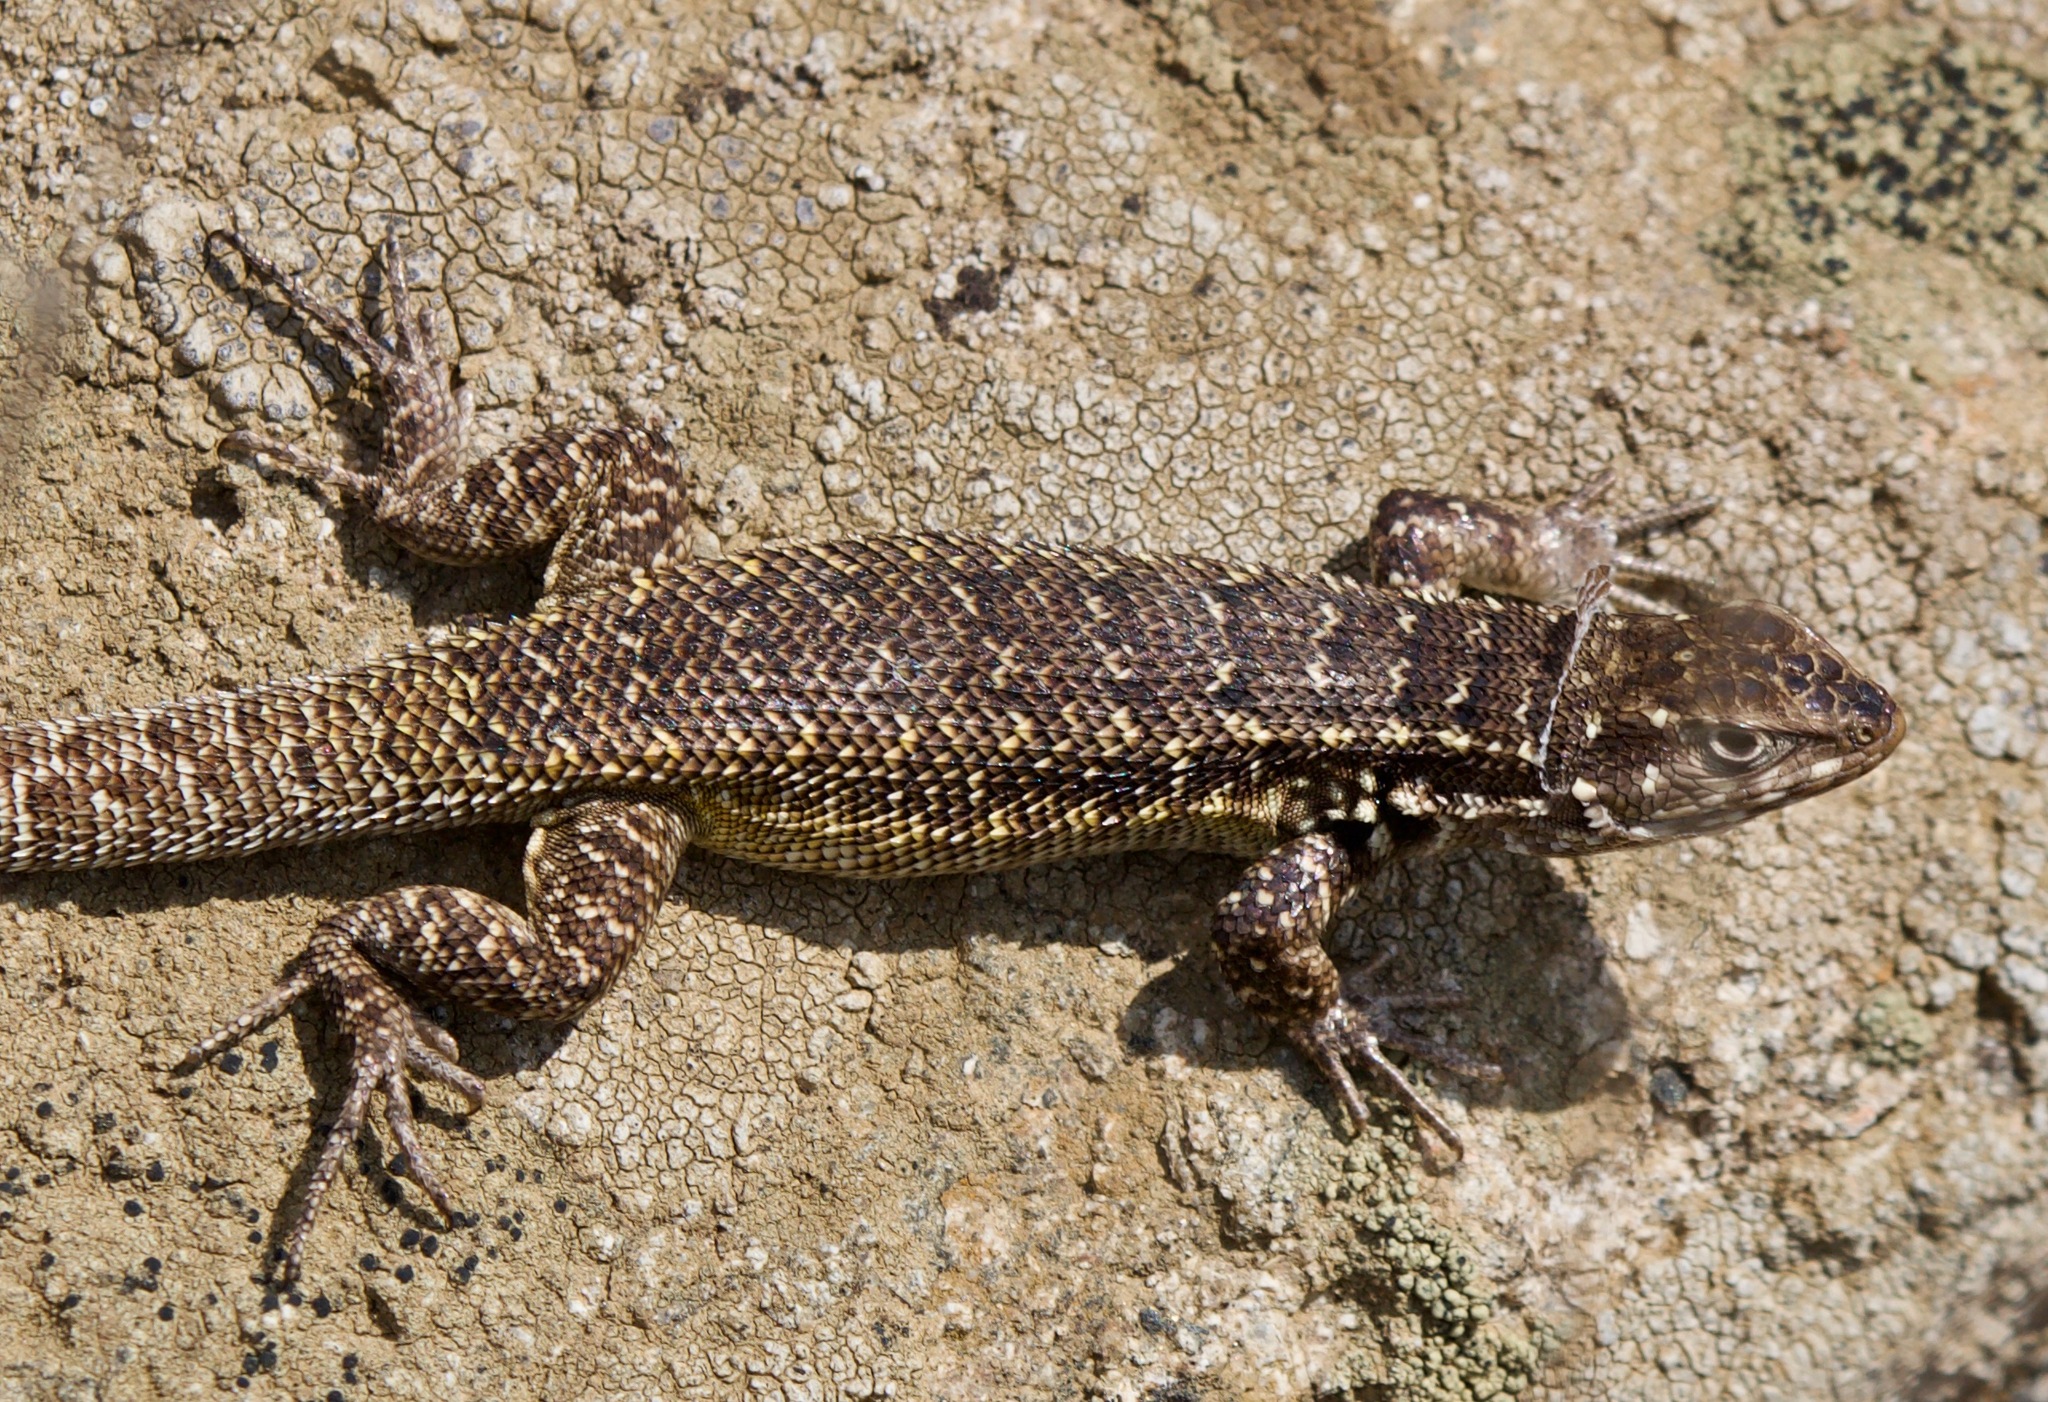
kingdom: Animalia
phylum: Chordata
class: Squamata
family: Liolaemidae
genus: Liolaemus
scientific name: Liolaemus zapallarensis
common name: Zapallaren tree iguana
